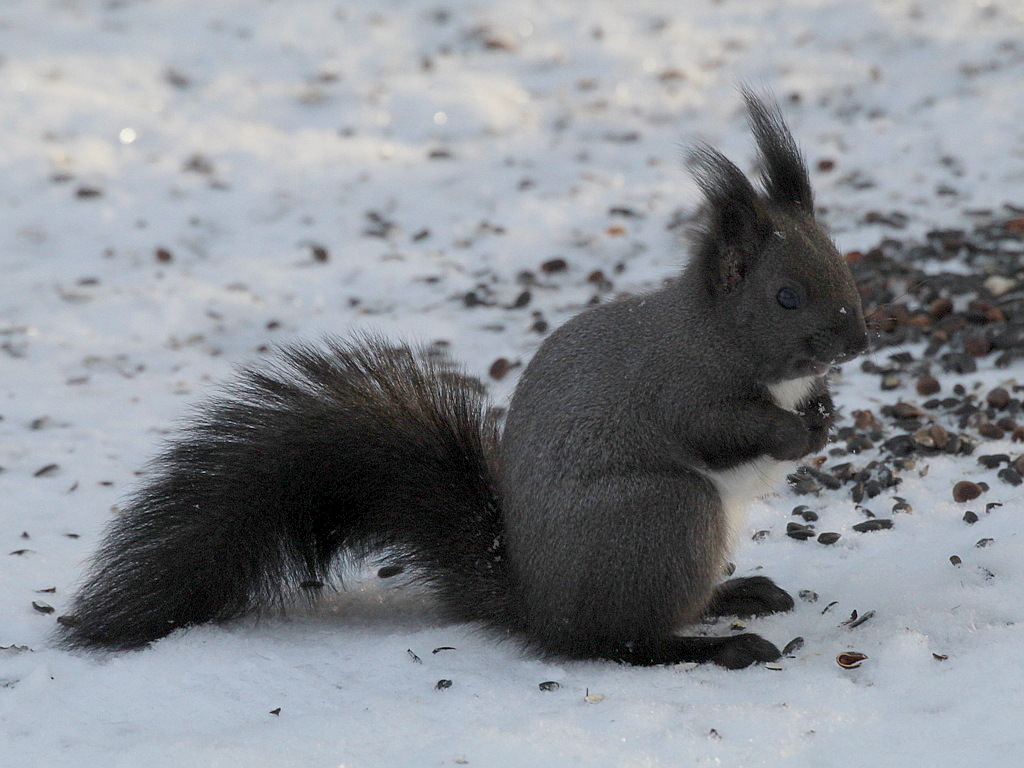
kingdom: Animalia
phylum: Chordata
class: Mammalia
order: Rodentia
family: Sciuridae
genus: Sciurus
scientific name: Sciurus vulgaris
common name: Eurasian red squirrel
